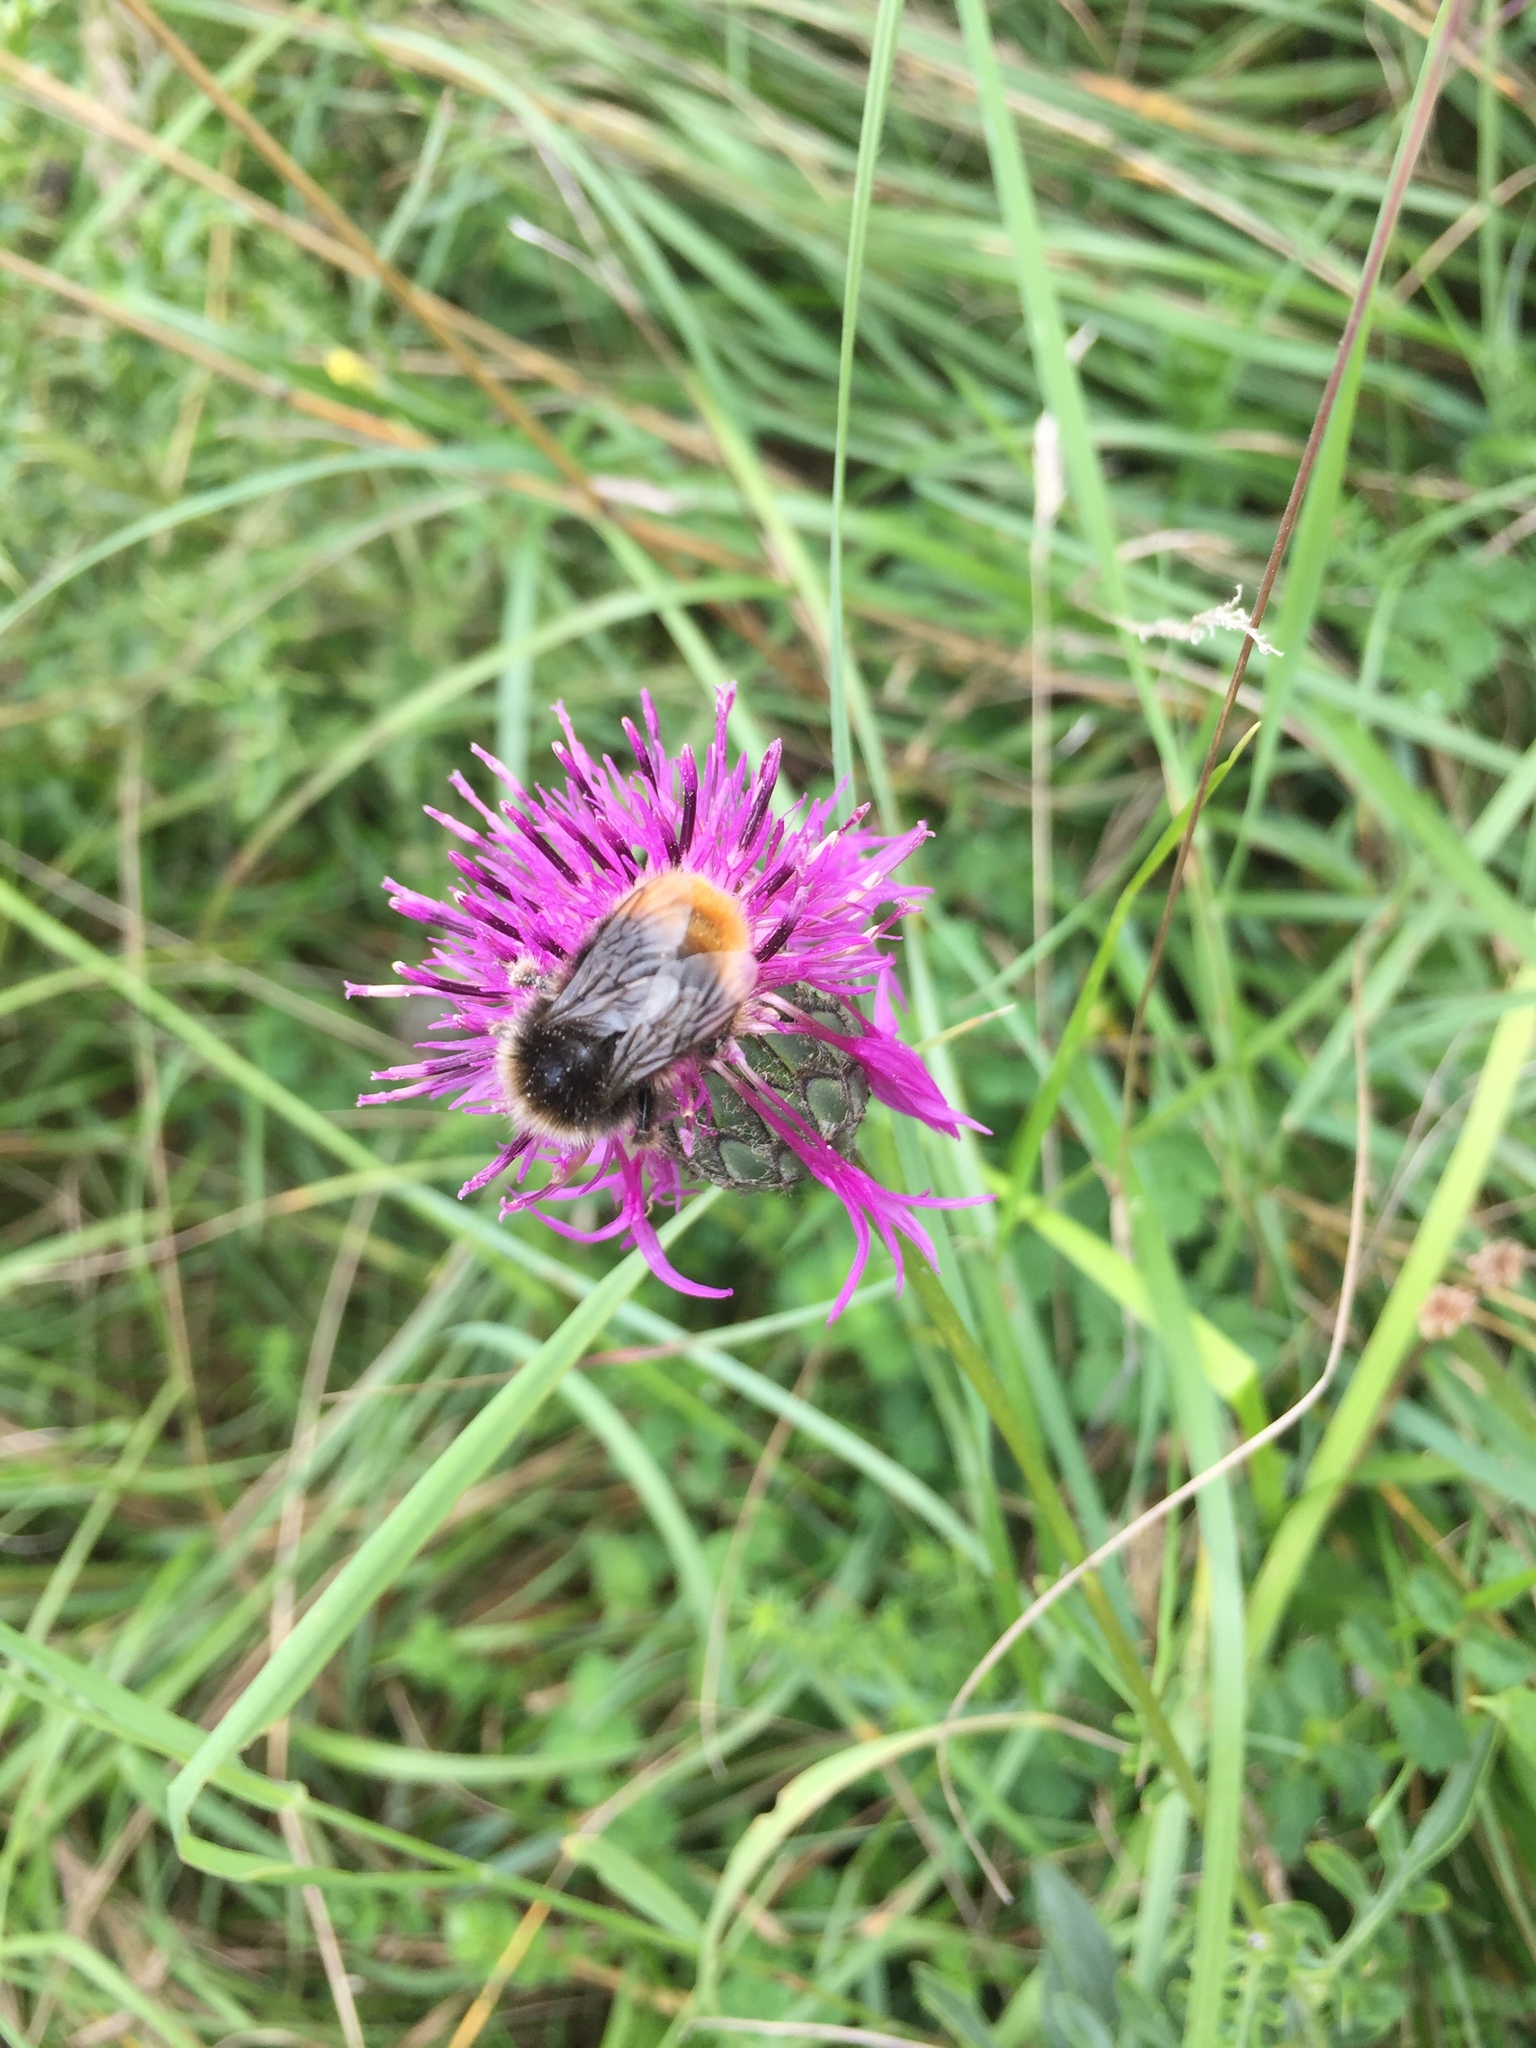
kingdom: Animalia
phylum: Arthropoda
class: Insecta
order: Hymenoptera
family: Apidae
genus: Bombus
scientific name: Bombus lapidarius
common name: Large red-tailed humble-bee
